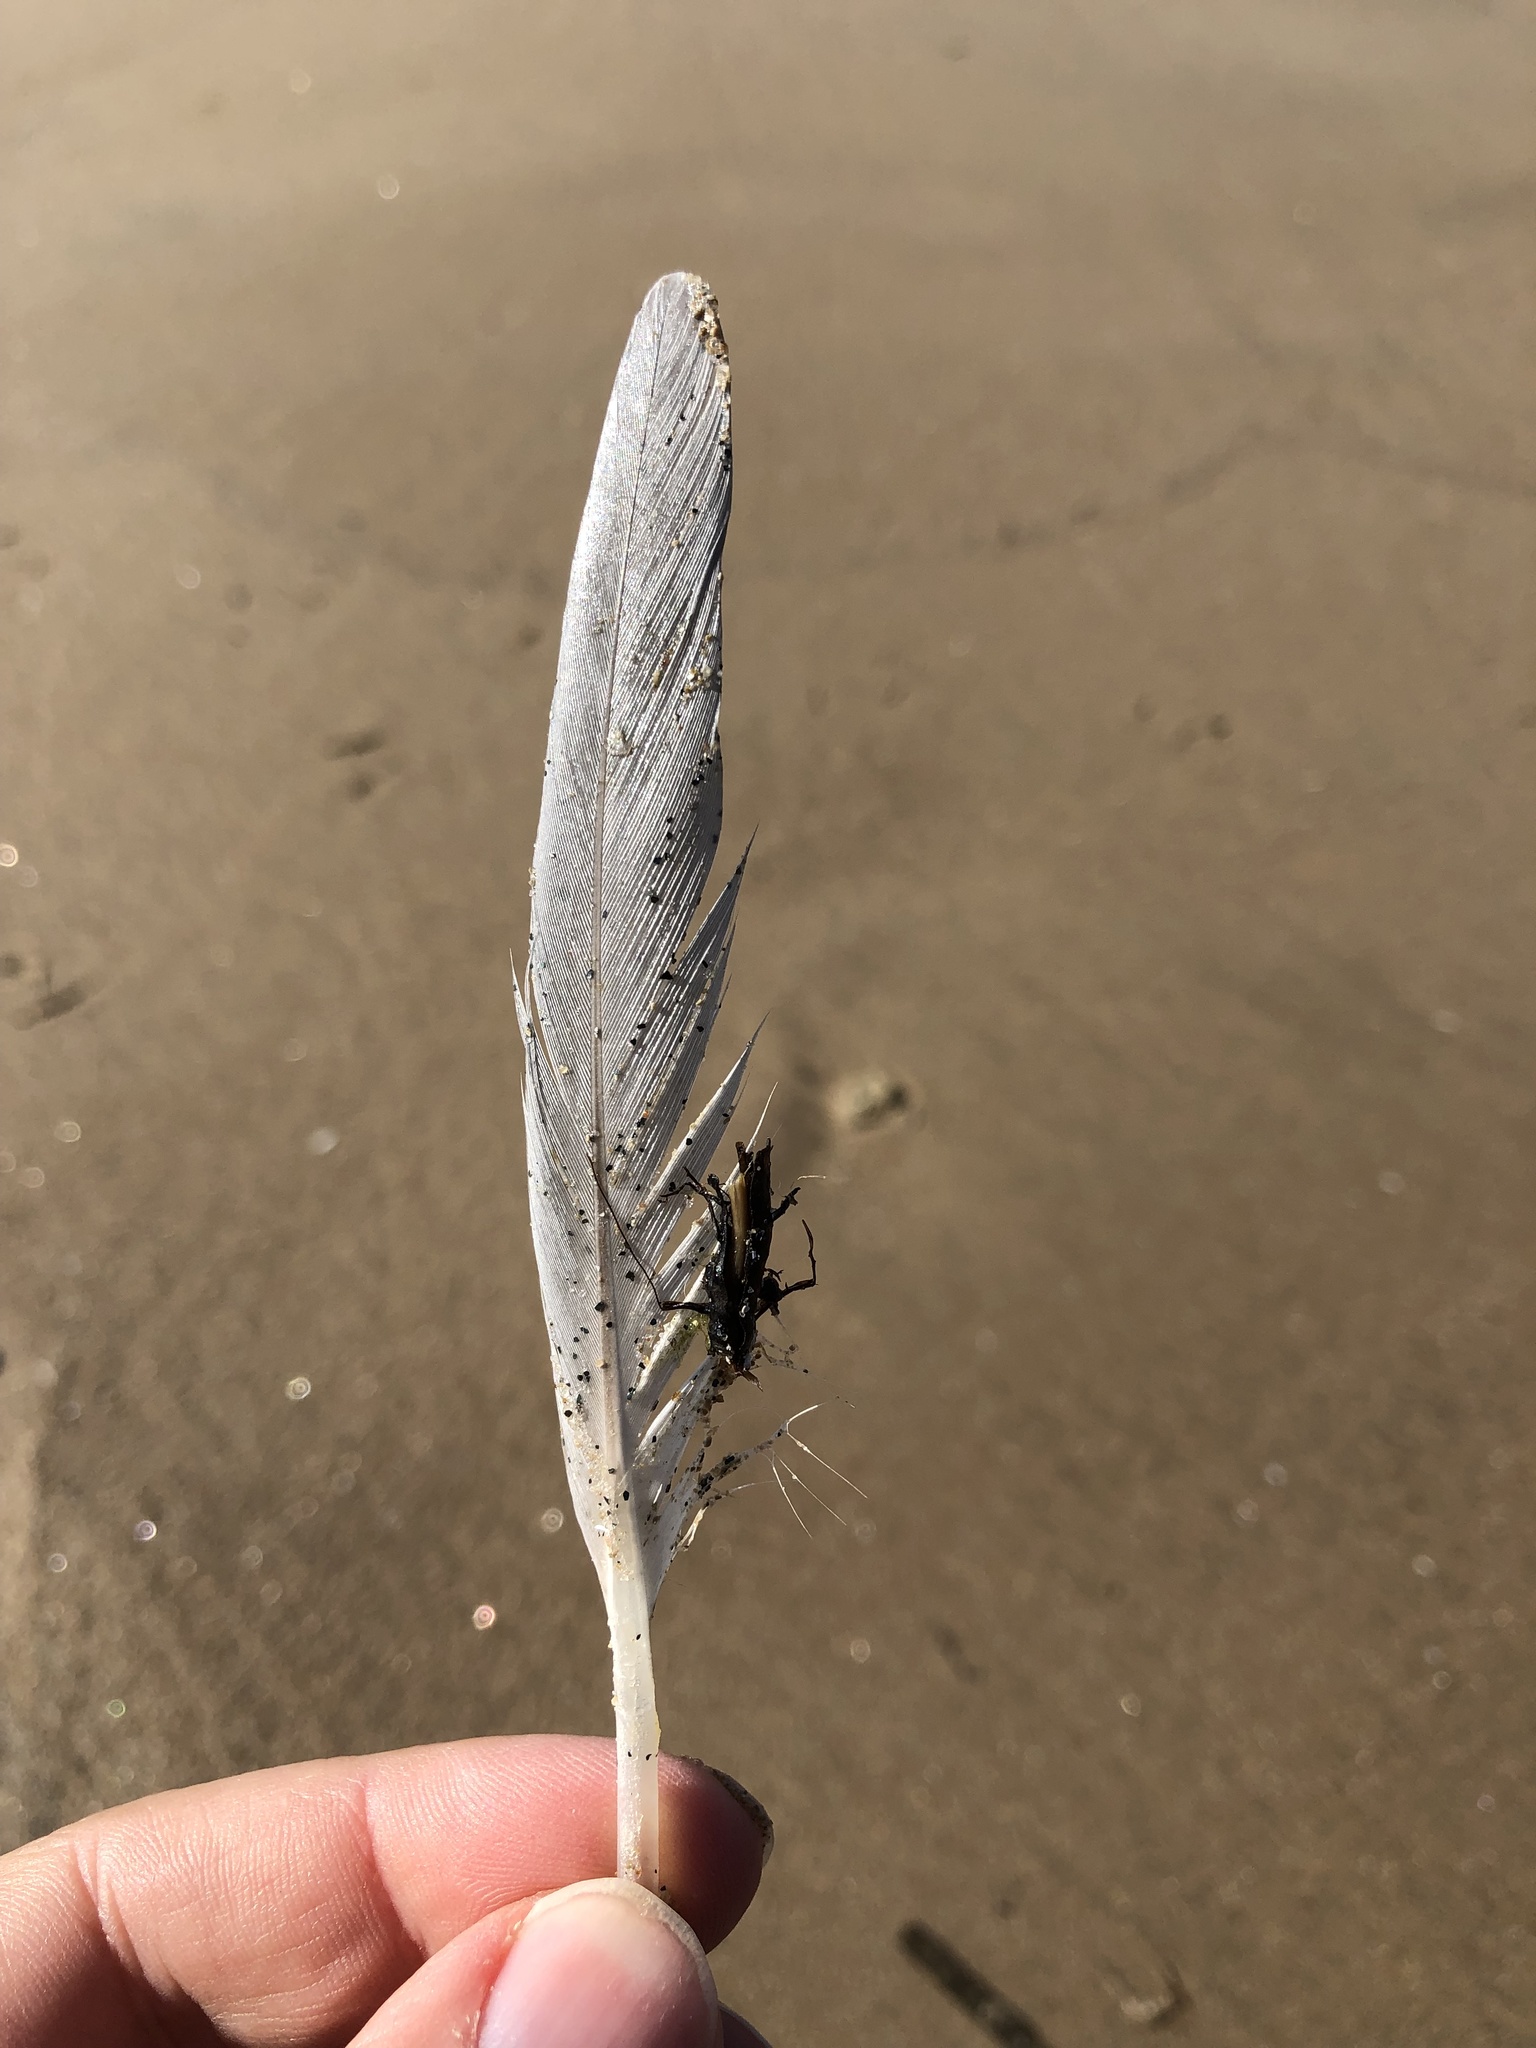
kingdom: Animalia
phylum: Chordata
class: Aves
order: Charadriiformes
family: Laridae
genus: Larus
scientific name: Larus argentatus
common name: Herring gull
